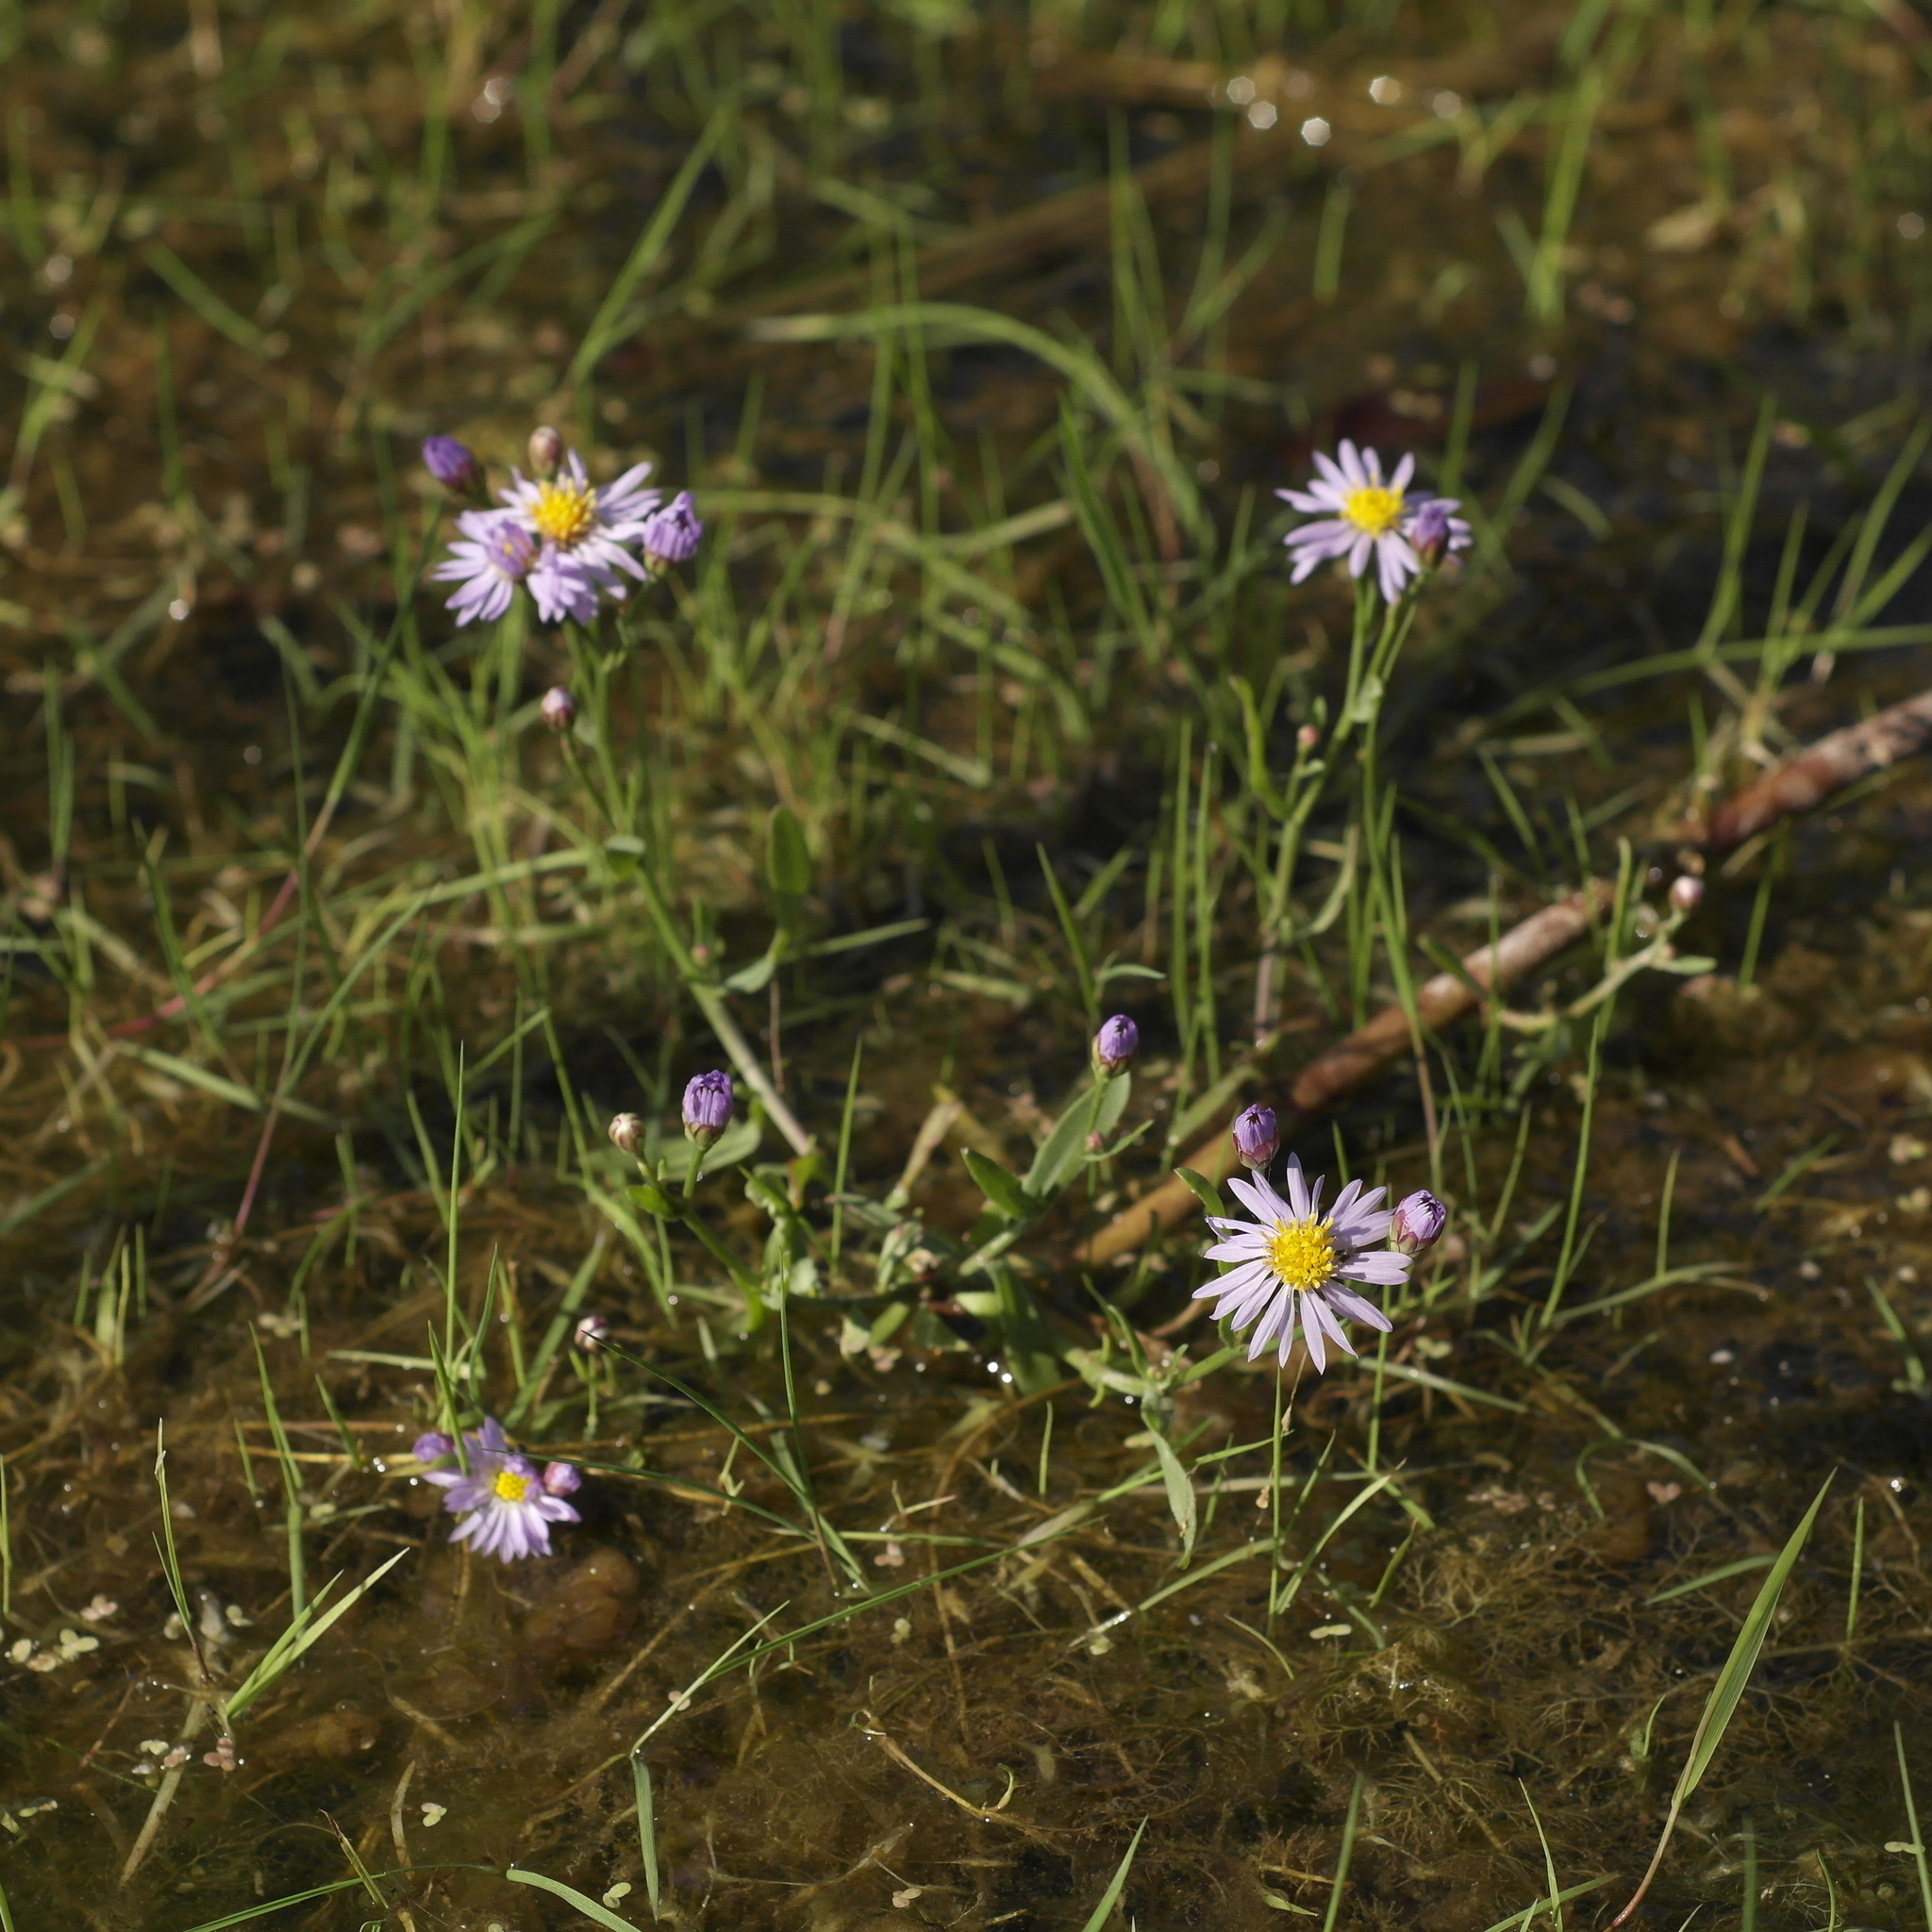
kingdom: Plantae
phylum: Tracheophyta
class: Magnoliopsida
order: Asterales
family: Asteraceae
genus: Tripolium
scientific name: Tripolium pannonicum
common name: Sea aster
